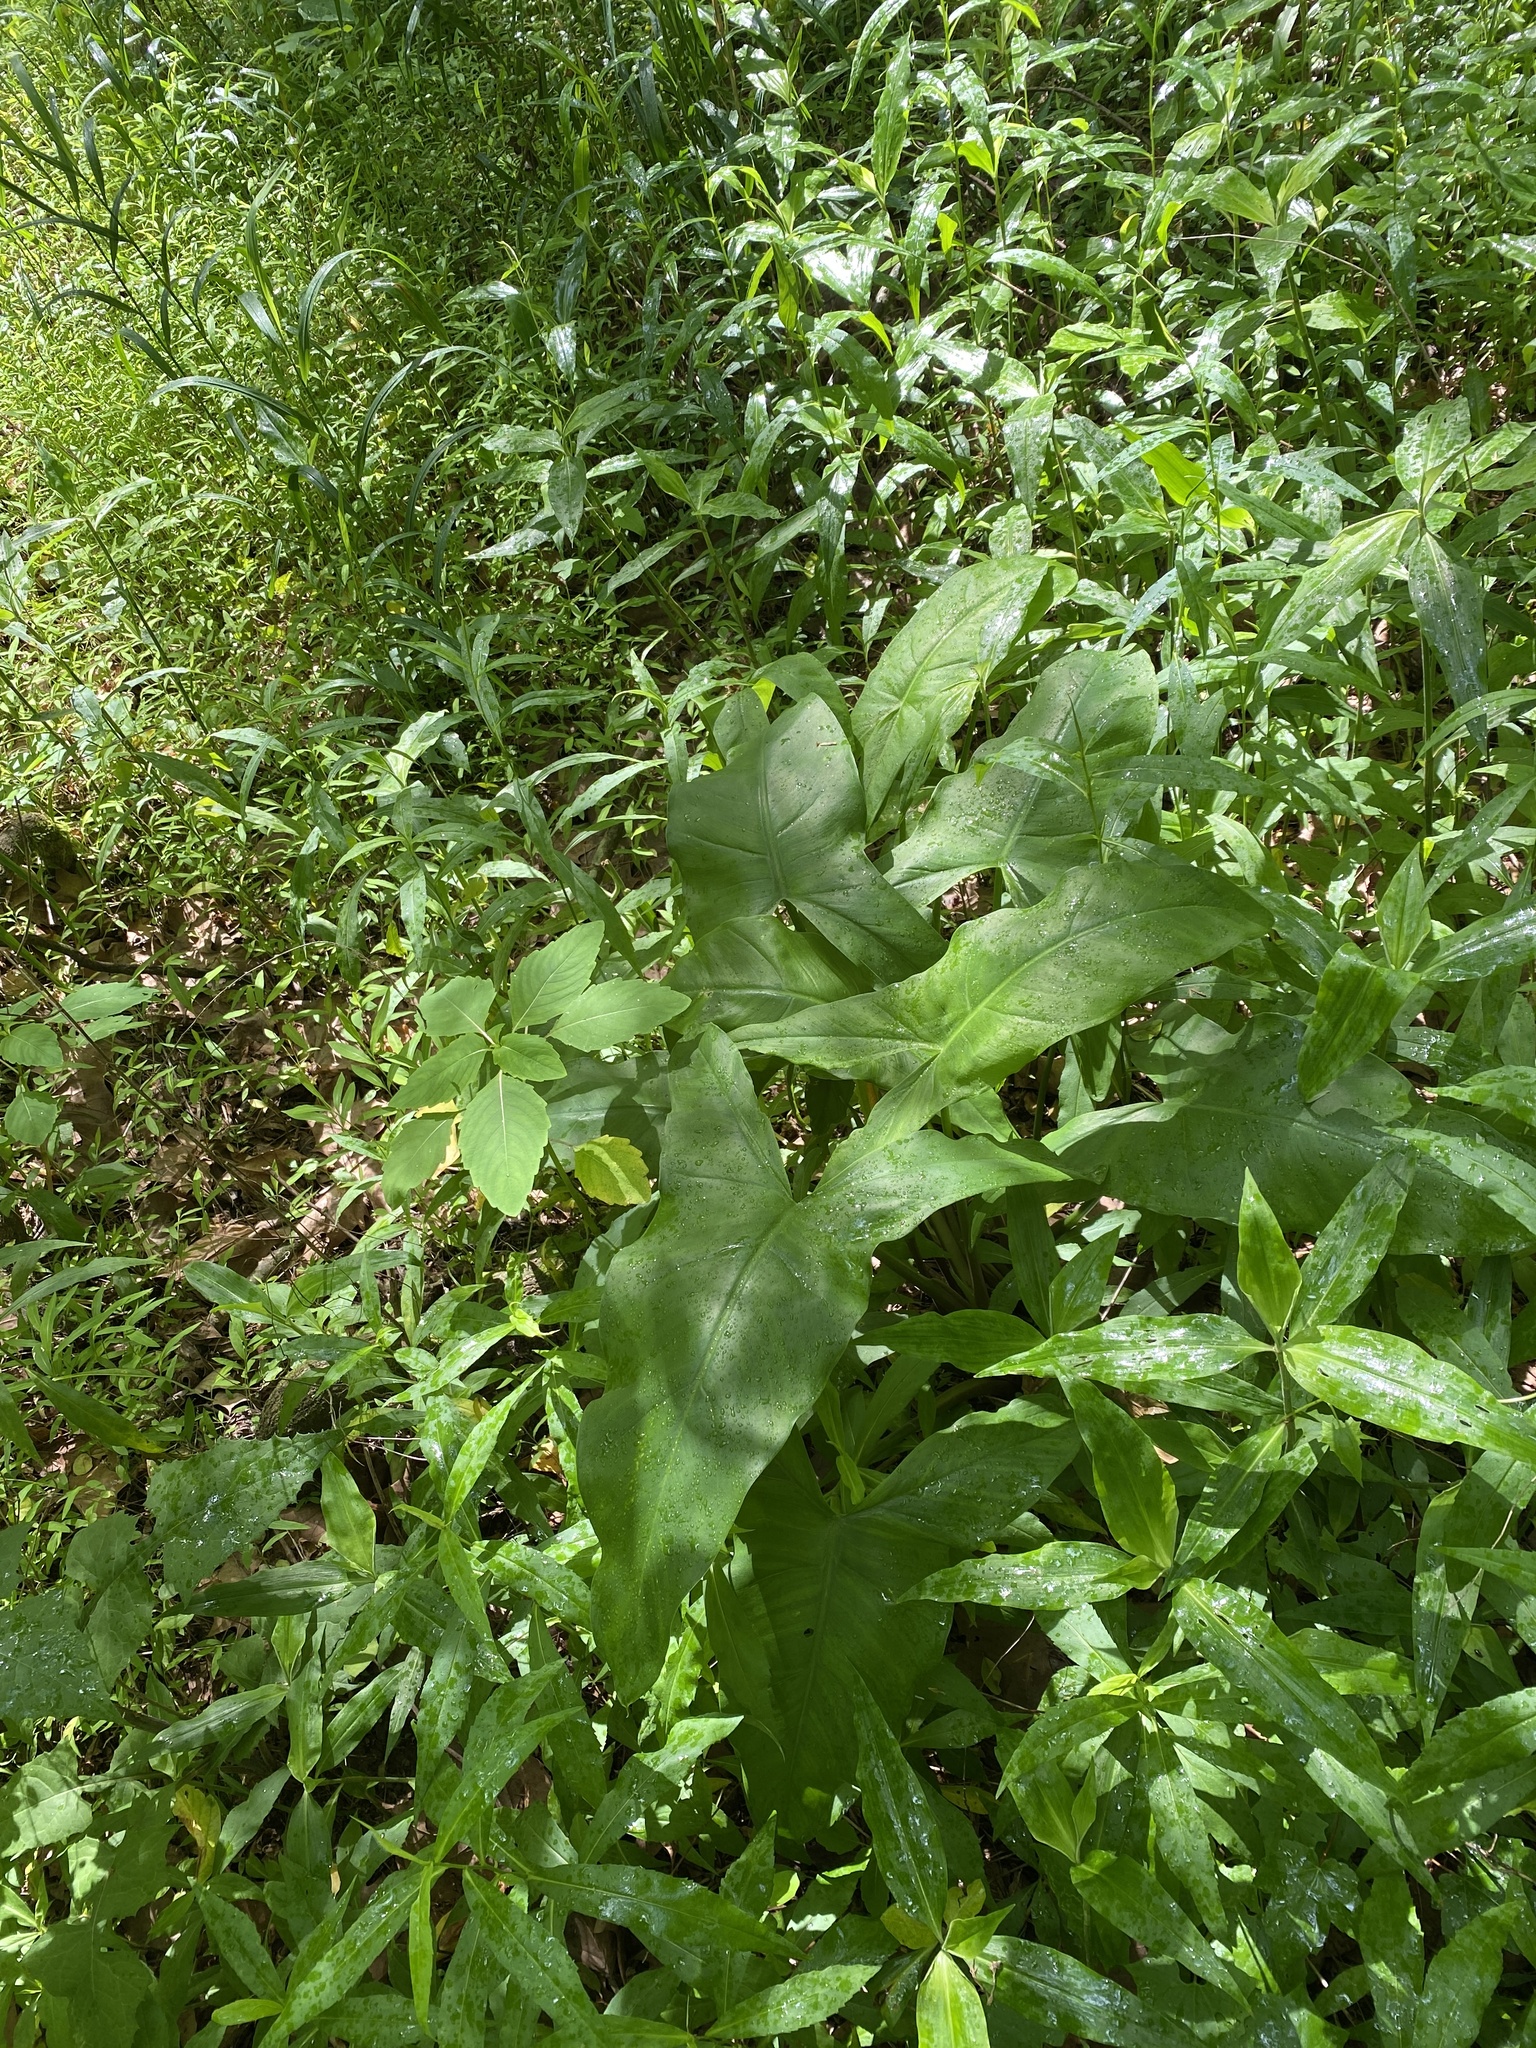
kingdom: Plantae
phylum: Tracheophyta
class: Liliopsida
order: Alismatales
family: Araceae
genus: Peltandra
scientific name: Peltandra virginica
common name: Arrow arum
